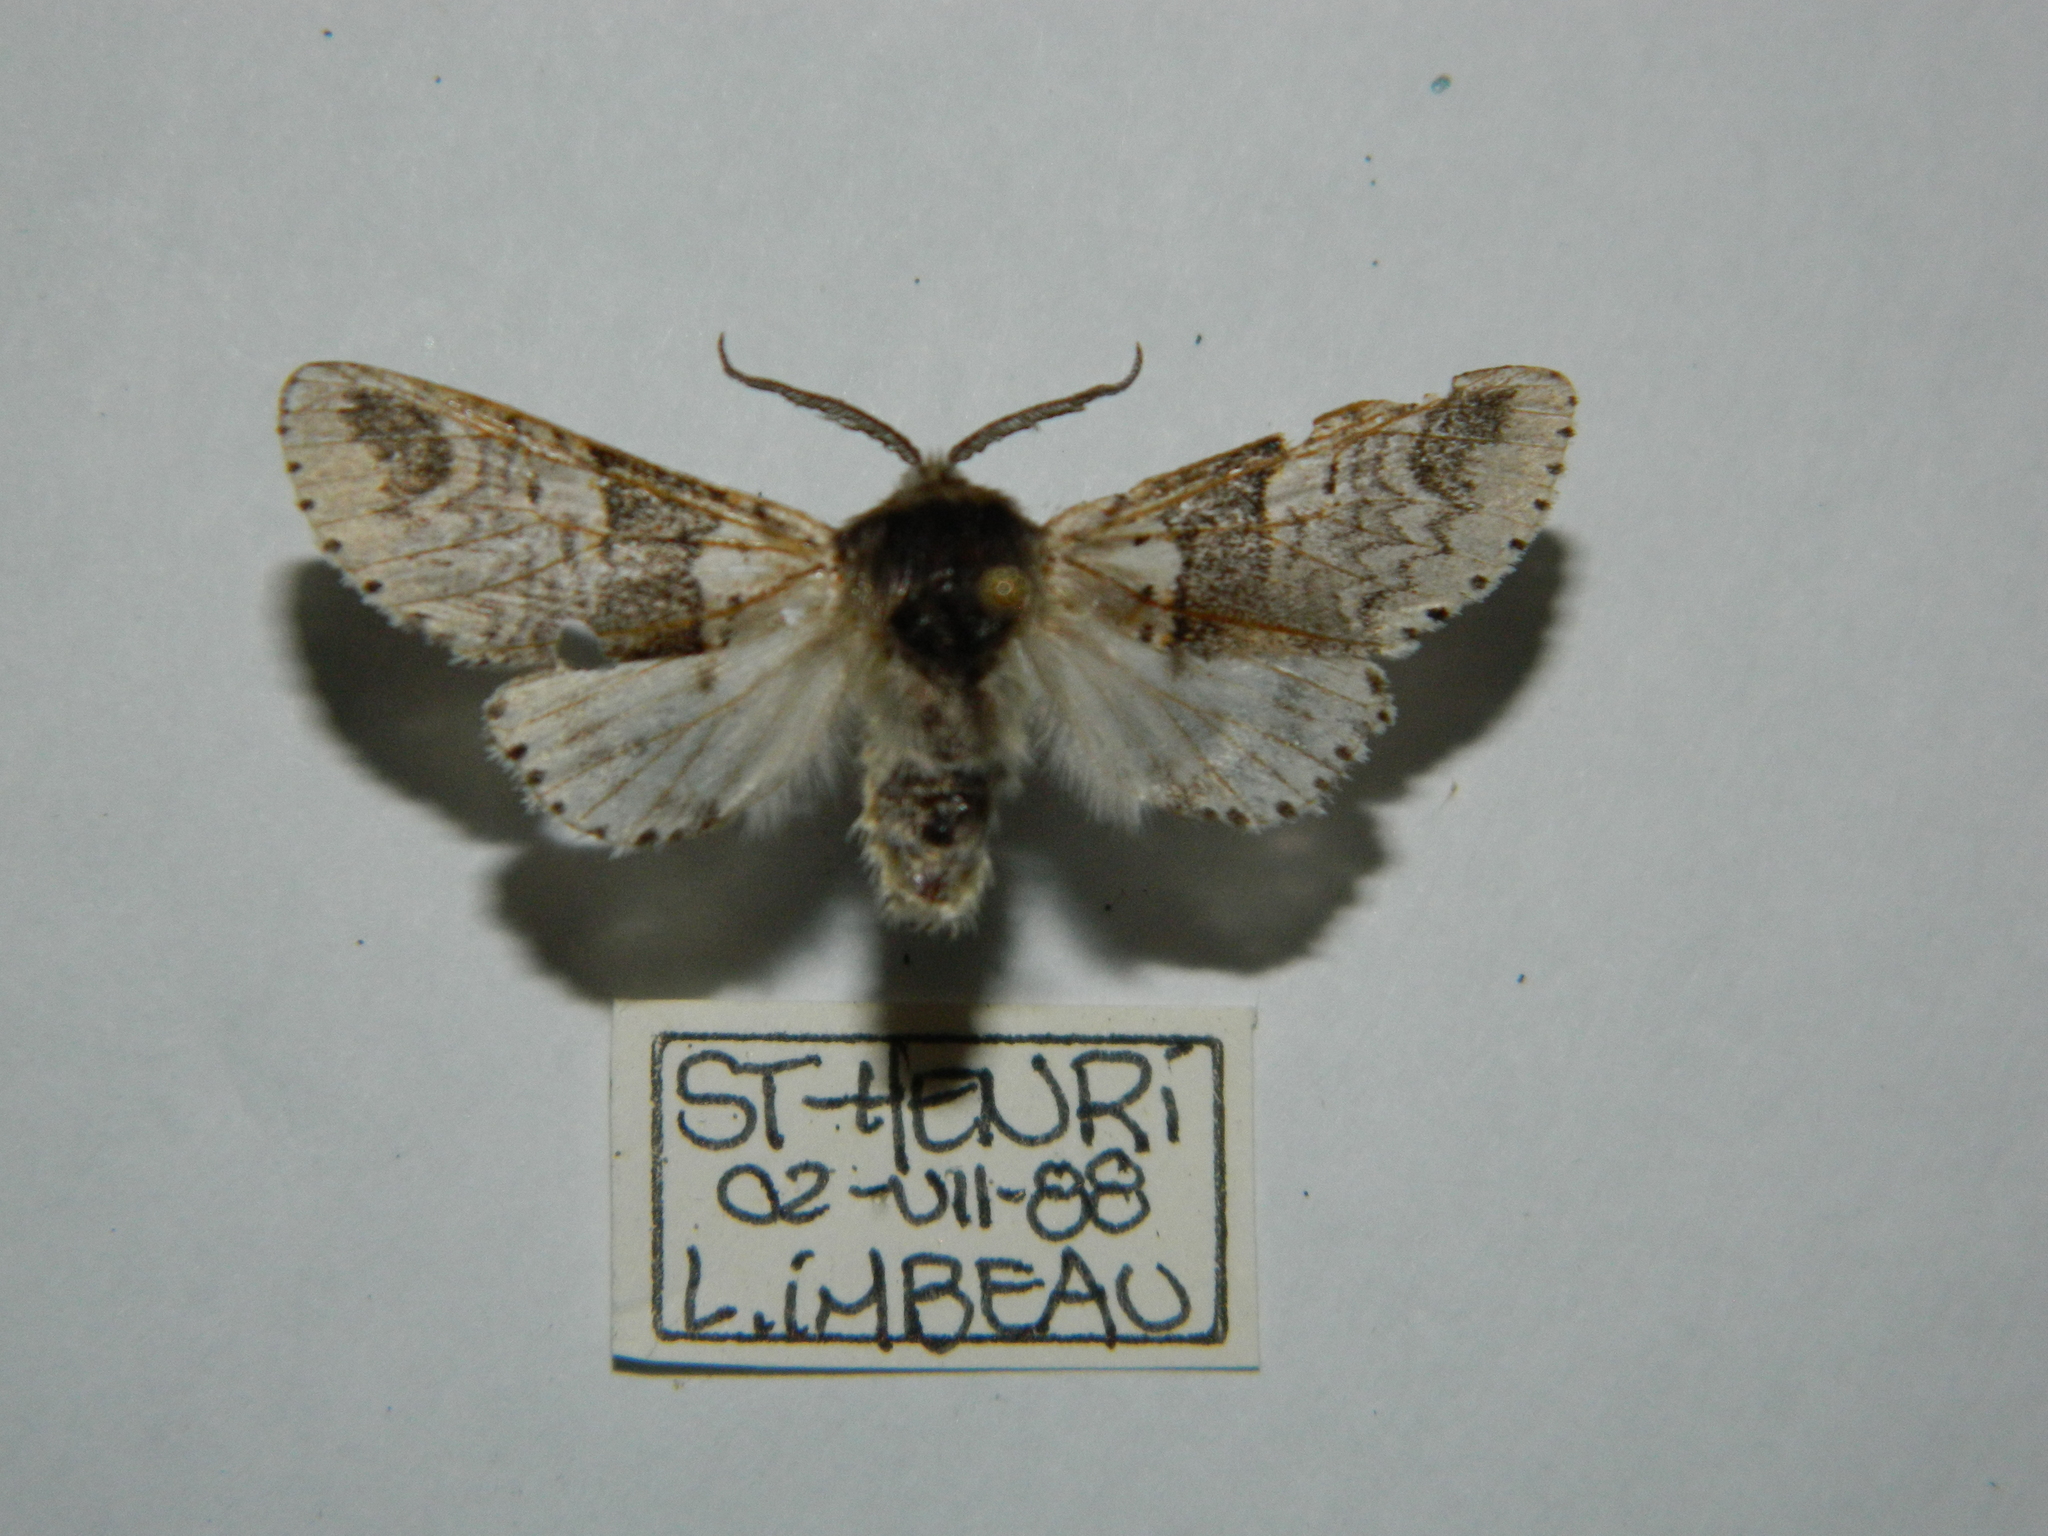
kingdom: Animalia
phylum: Arthropoda
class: Insecta
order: Lepidoptera
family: Notodontidae
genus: Furcula
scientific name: Furcula occidentalis
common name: Western furcula moth
